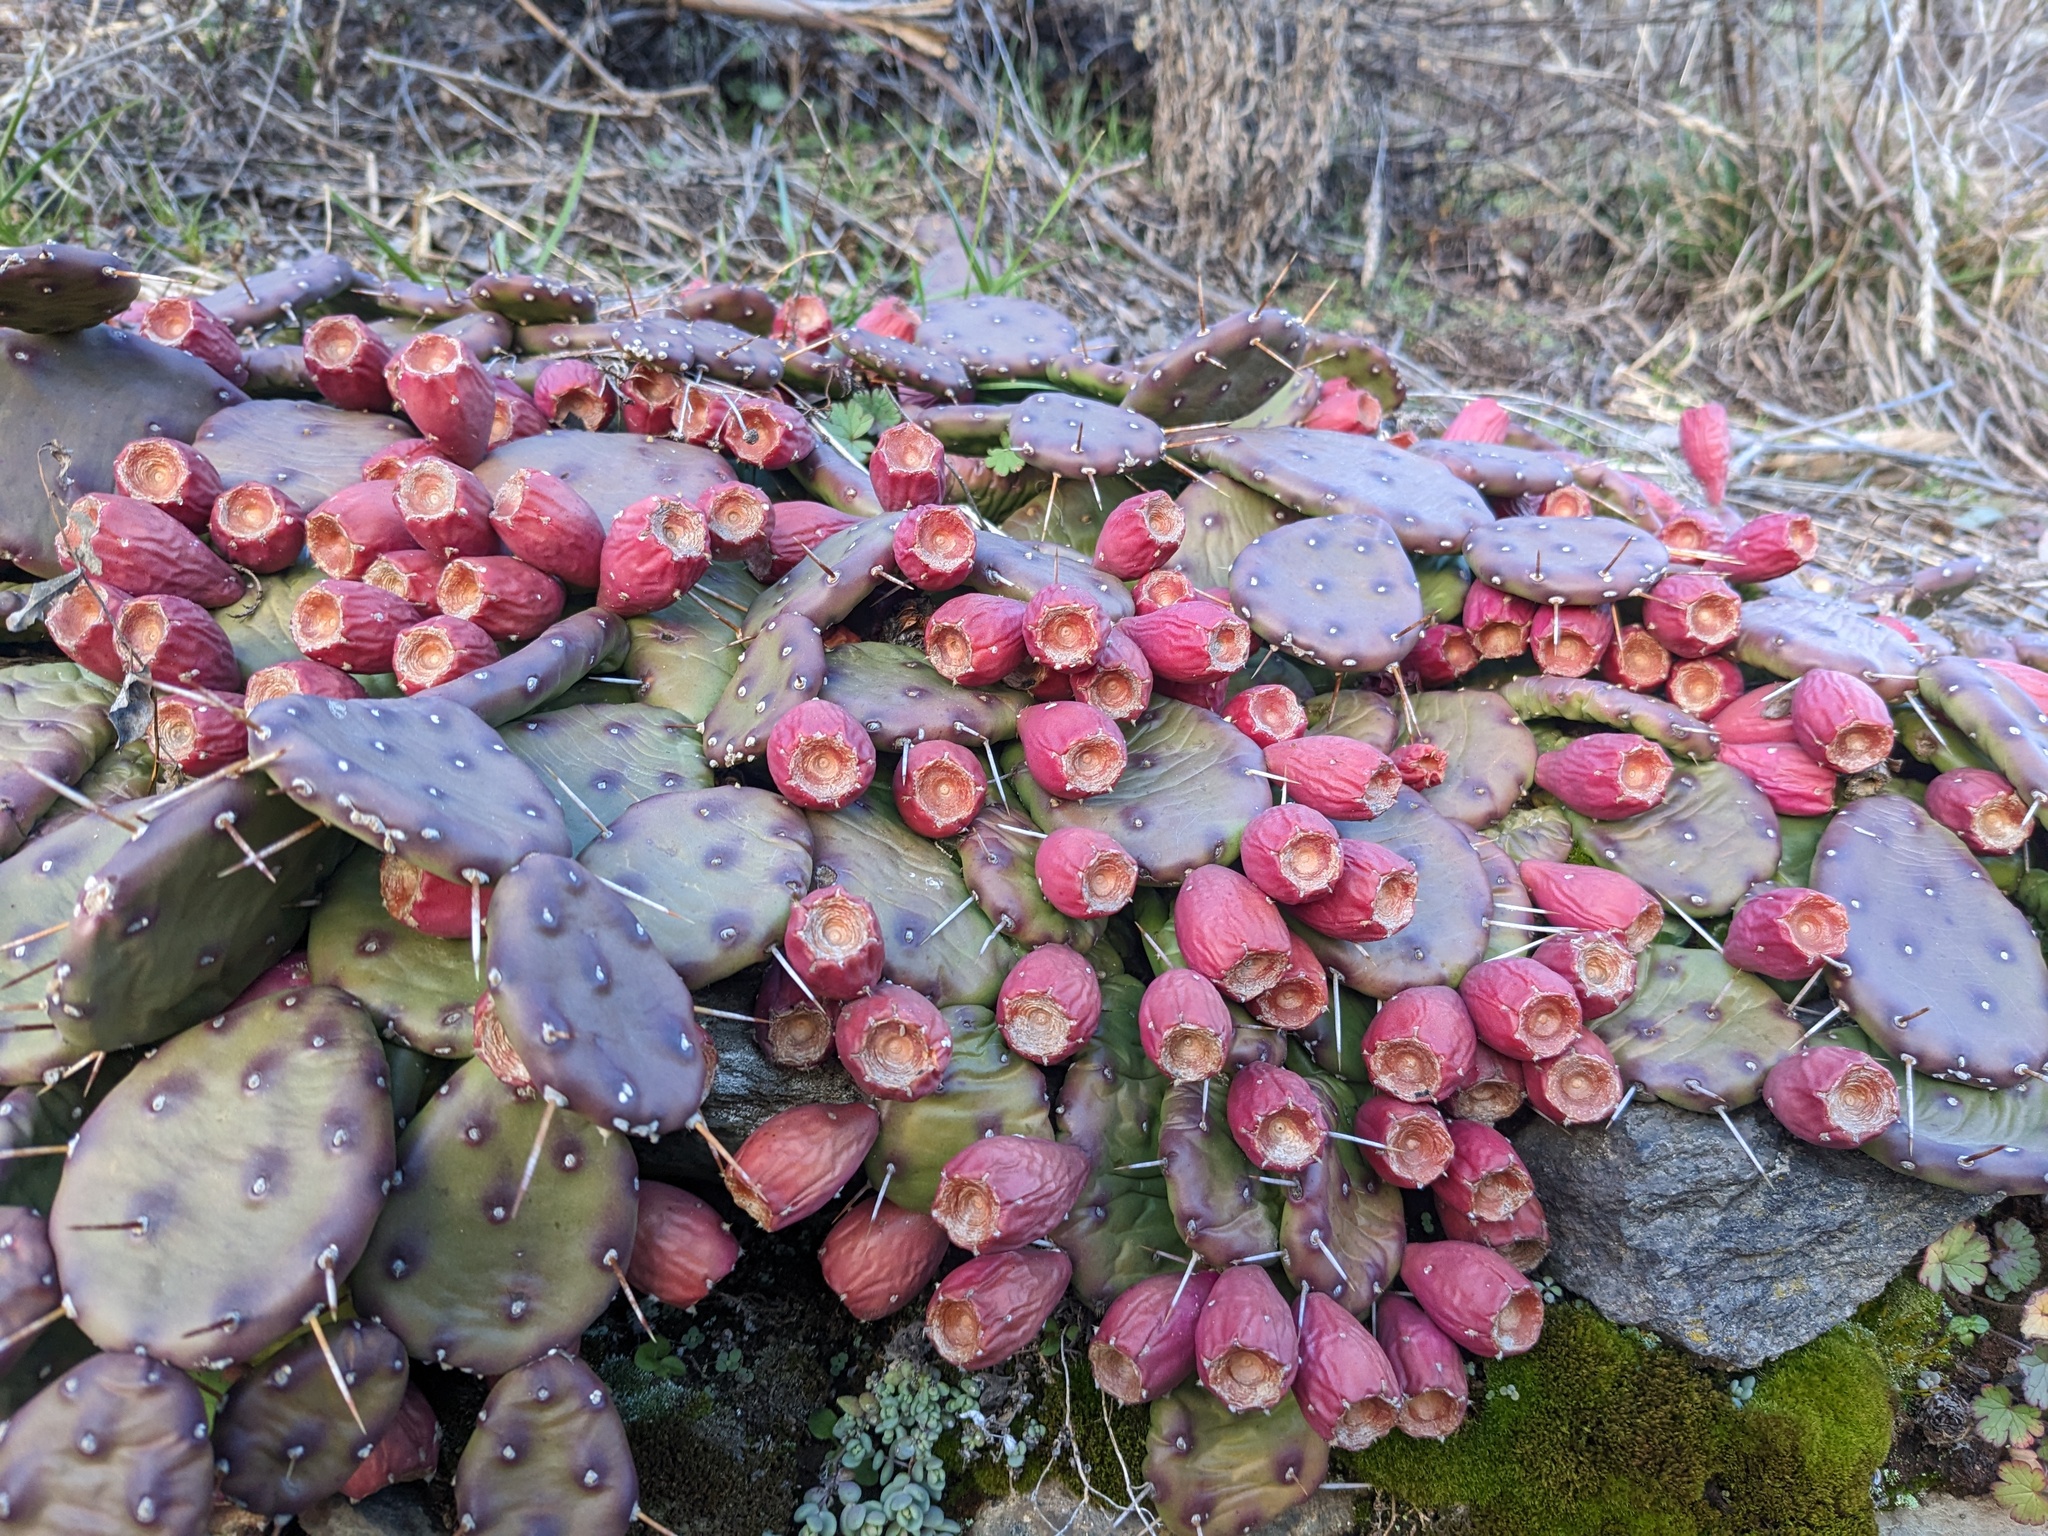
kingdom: Plantae
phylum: Tracheophyta
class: Magnoliopsida
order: Caryophyllales
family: Cactaceae
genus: Opuntia
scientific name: Opuntia humifusa
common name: Eastern prickly-pear
